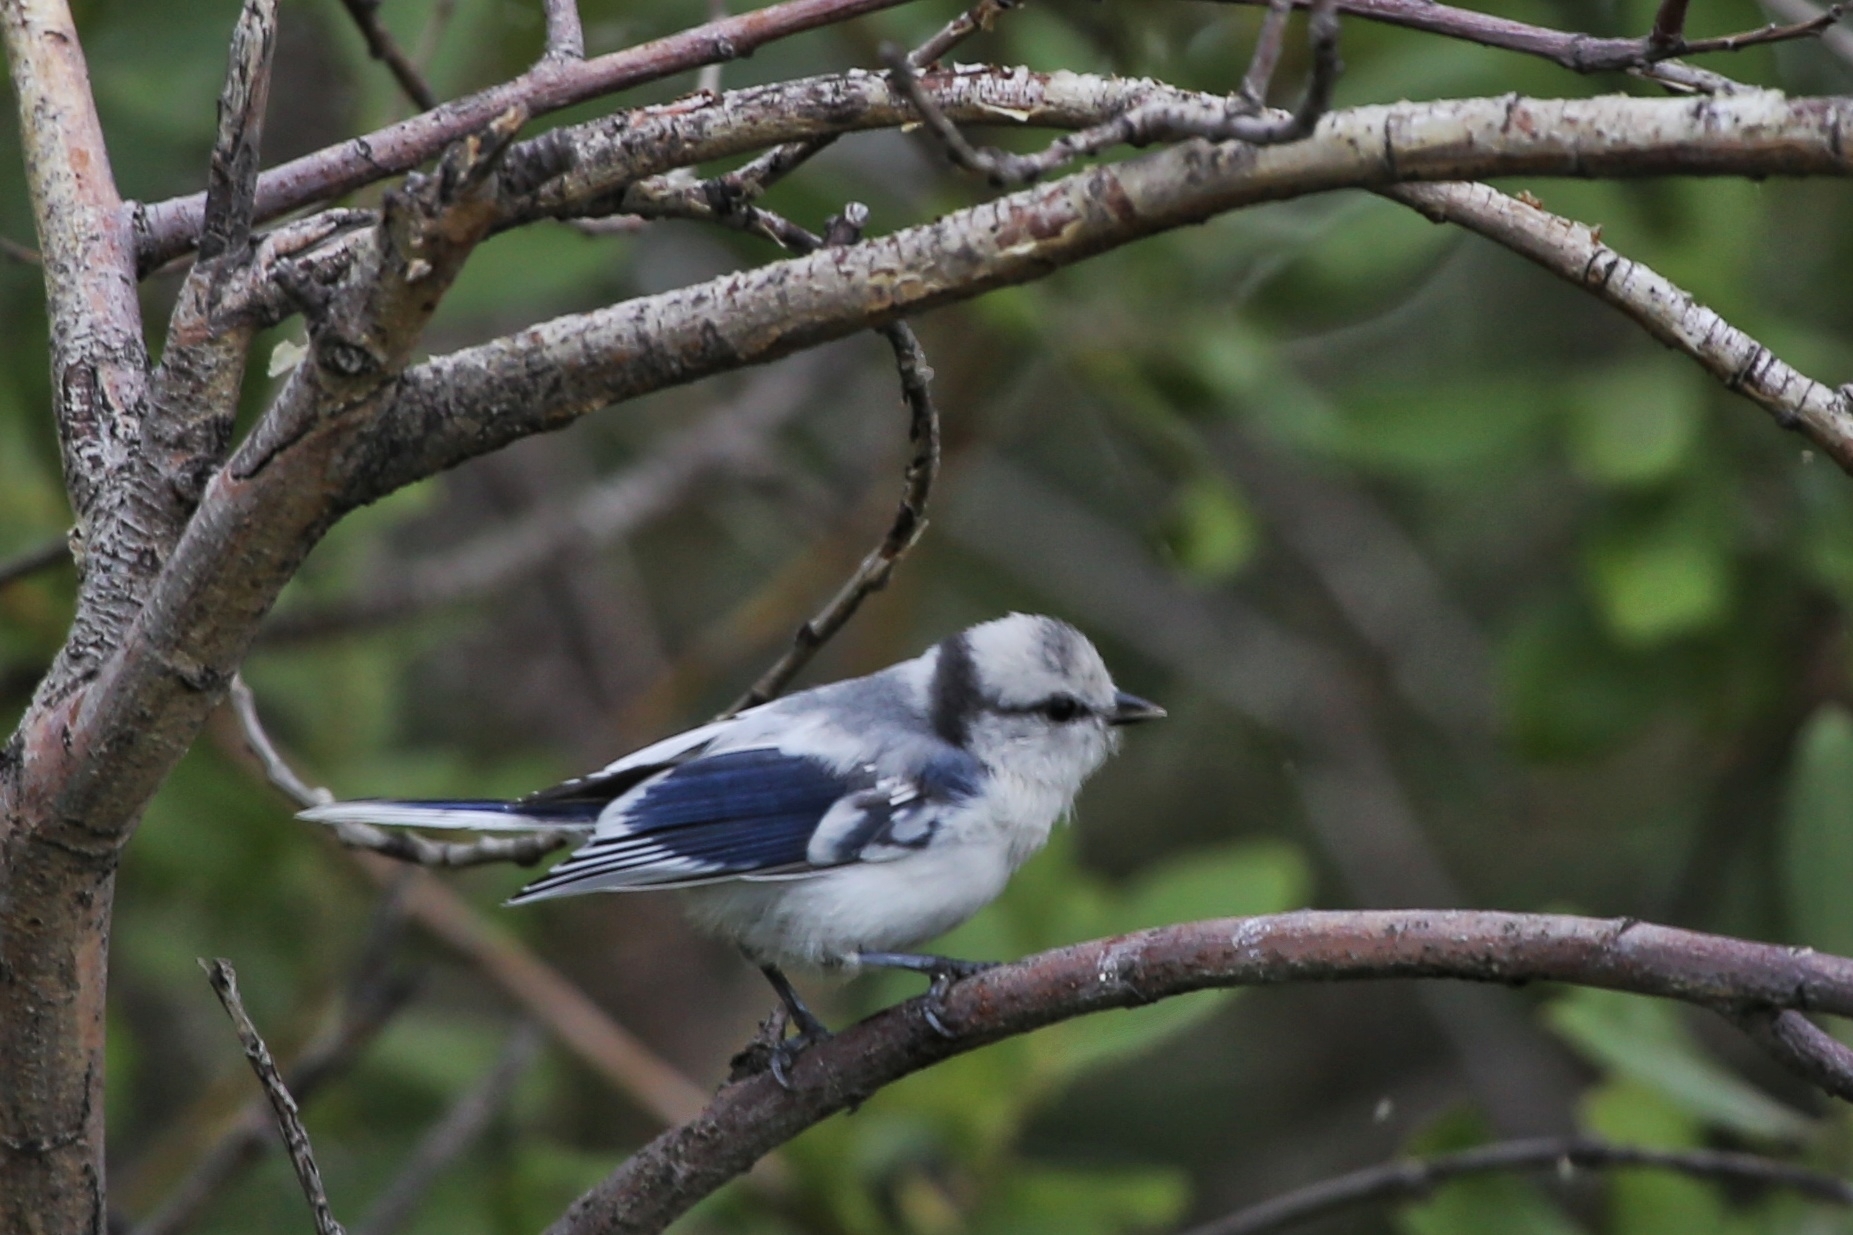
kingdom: Animalia
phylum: Chordata
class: Aves
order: Passeriformes
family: Paridae
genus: Cyanistes
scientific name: Cyanistes cyanus
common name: Azure tit
